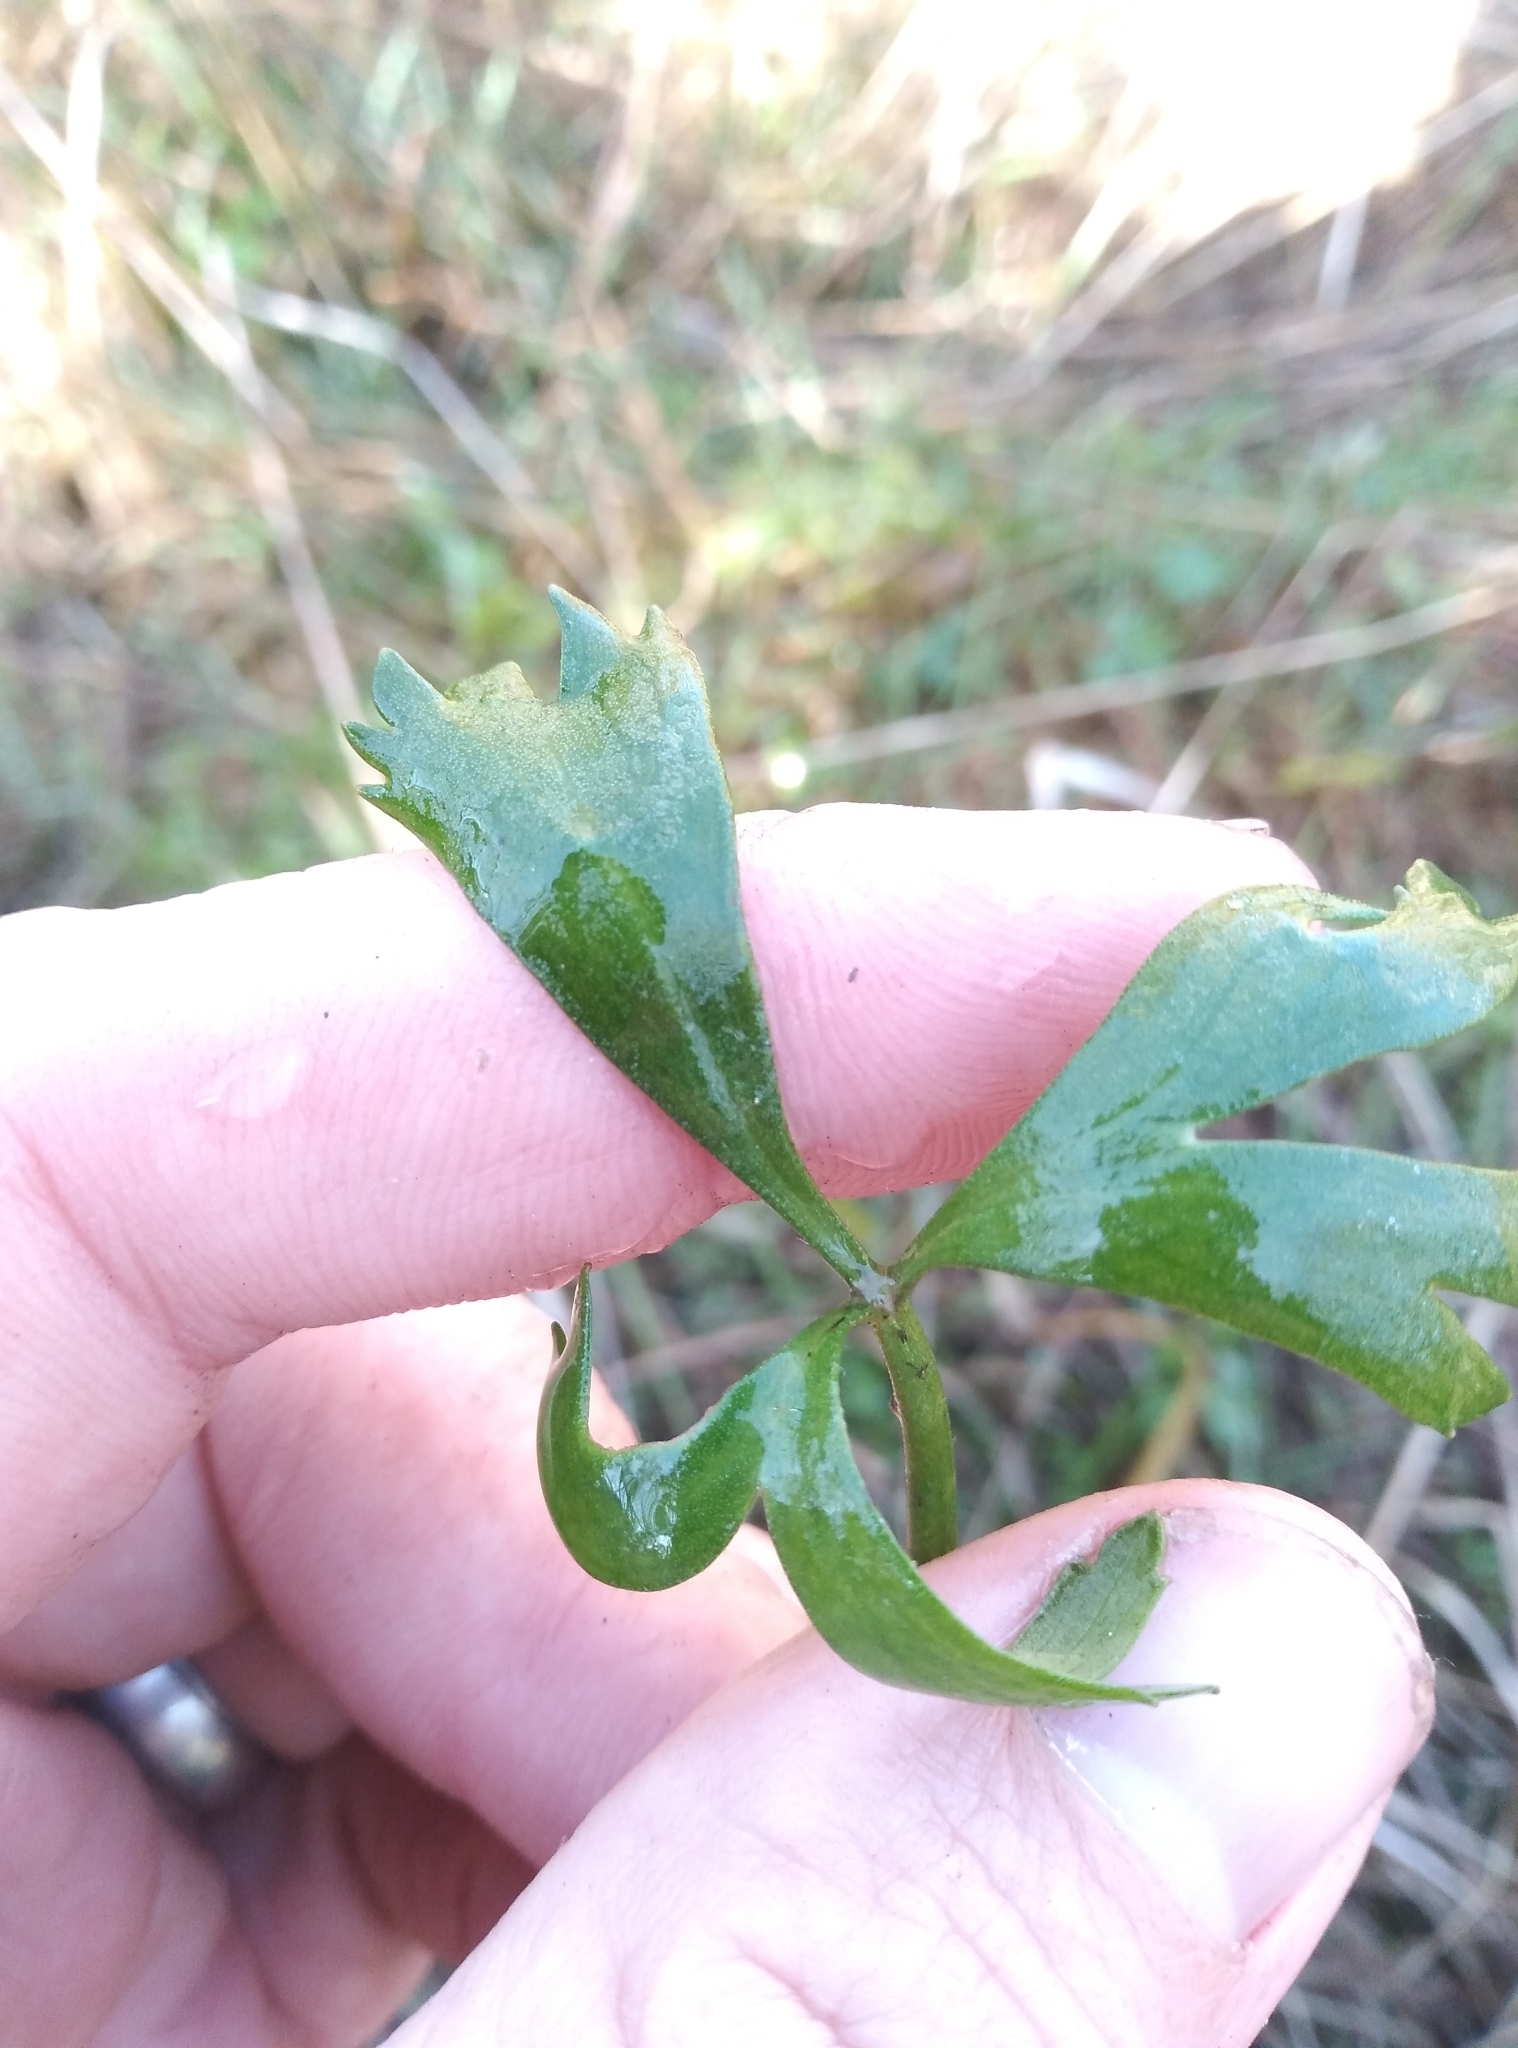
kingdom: Plantae
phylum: Tracheophyta
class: Magnoliopsida
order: Ranunculales
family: Ranunculaceae
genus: Ranunculus
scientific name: Ranunculus macropus
